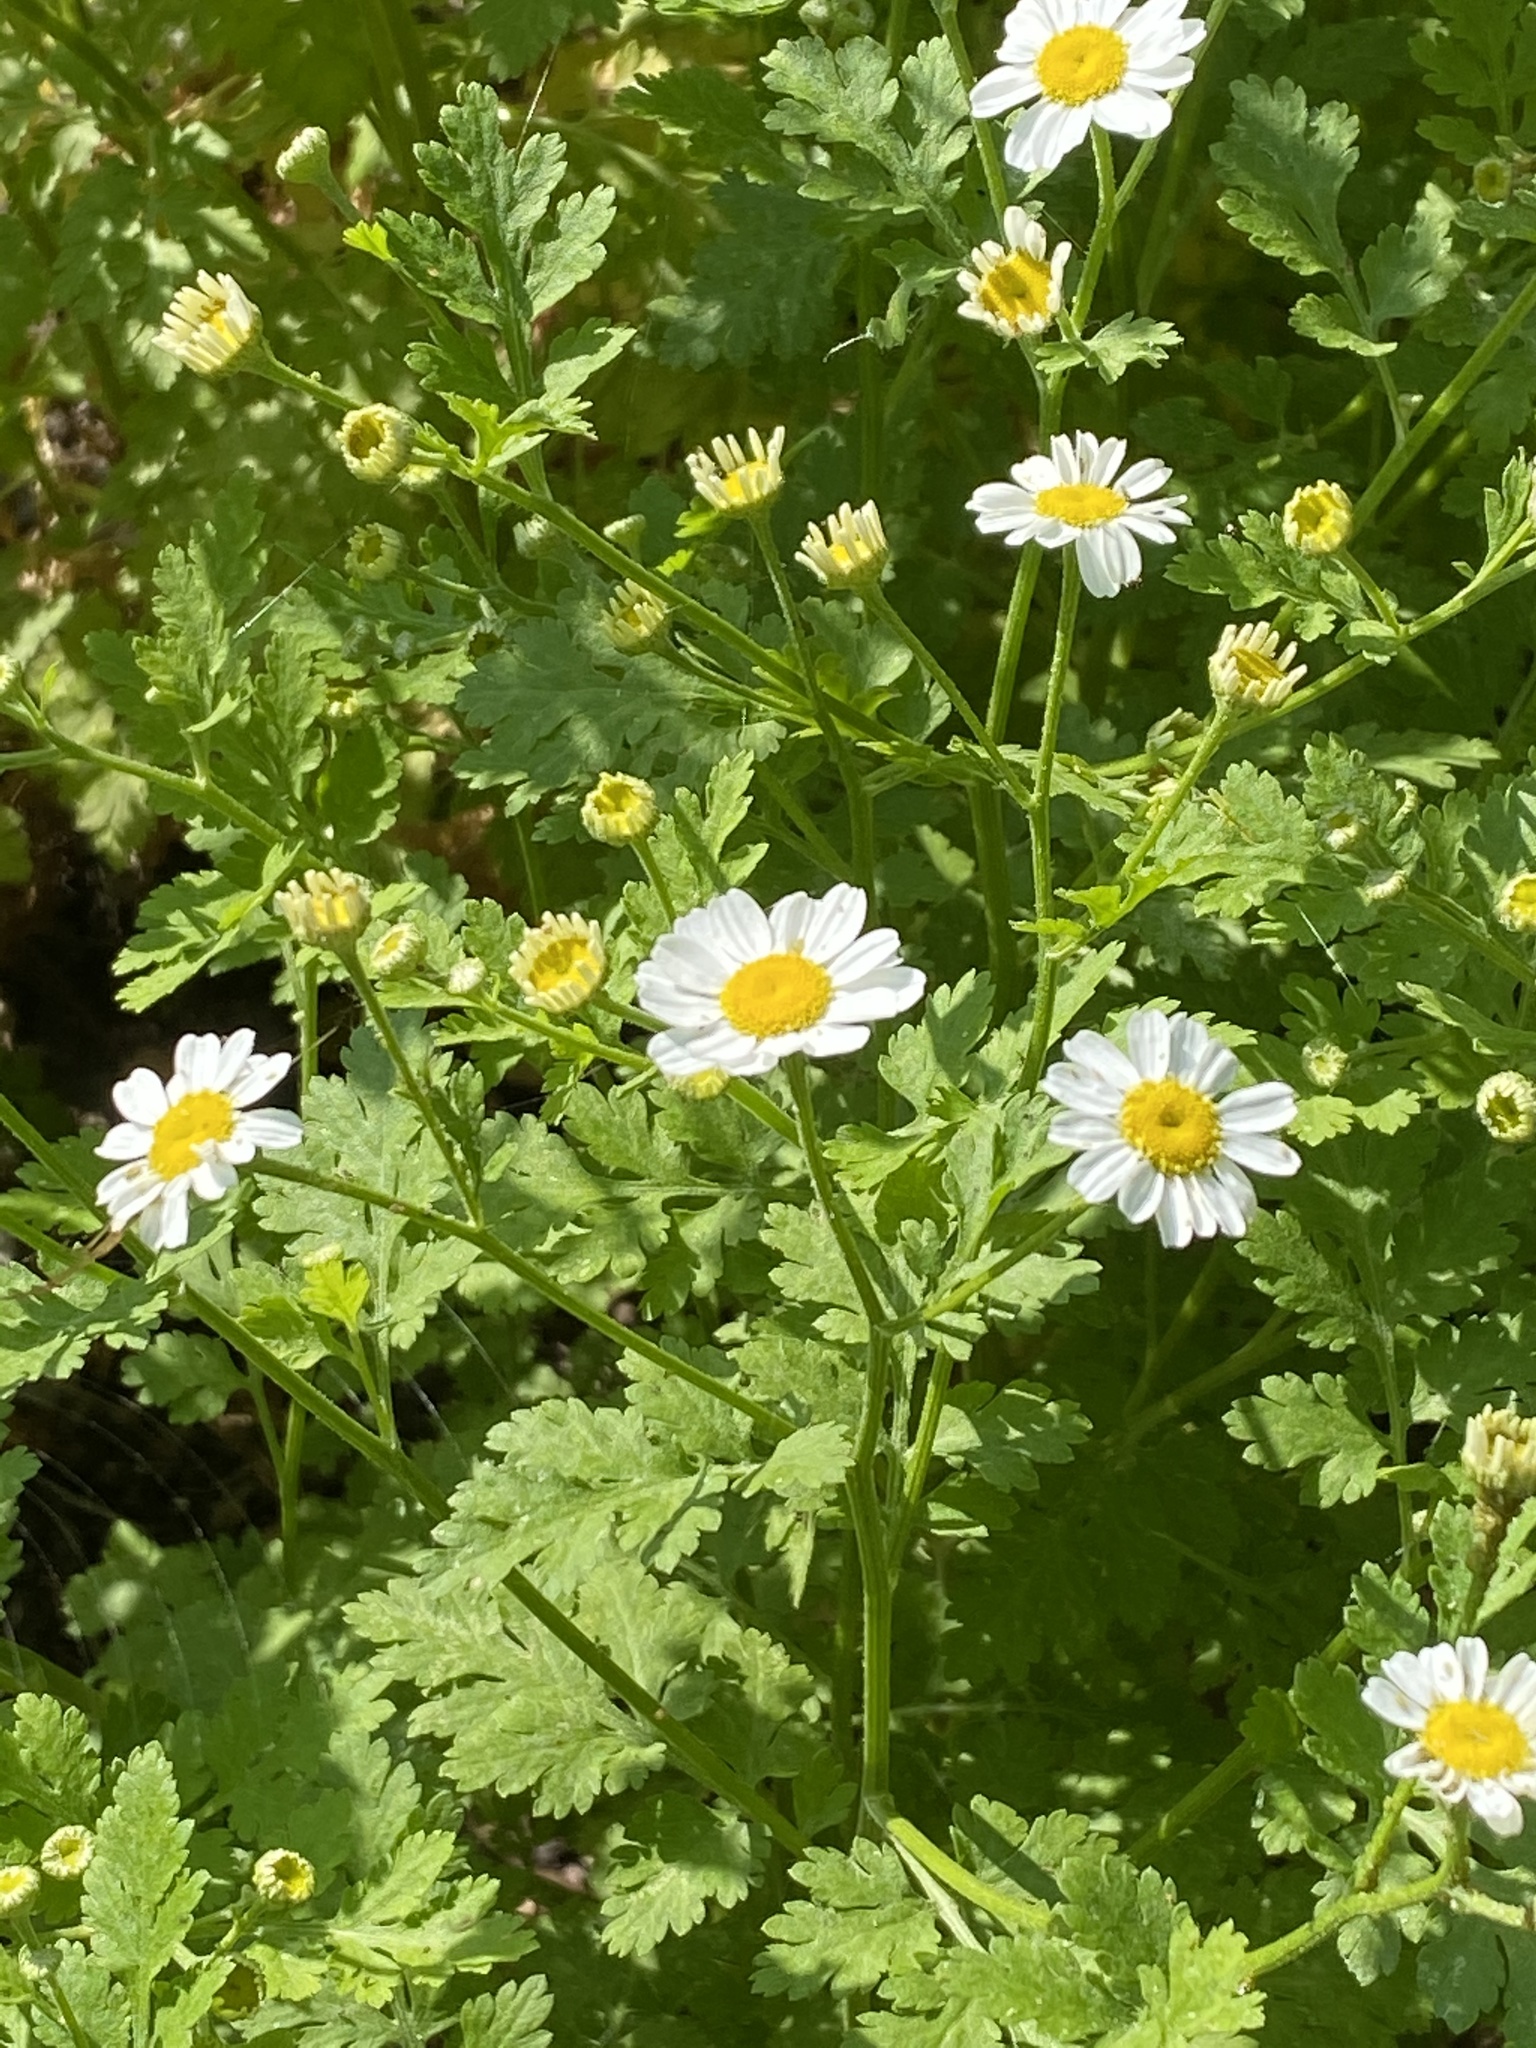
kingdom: Plantae
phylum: Tracheophyta
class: Magnoliopsida
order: Asterales
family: Asteraceae
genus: Tanacetum
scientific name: Tanacetum parthenium
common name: Feverfew
